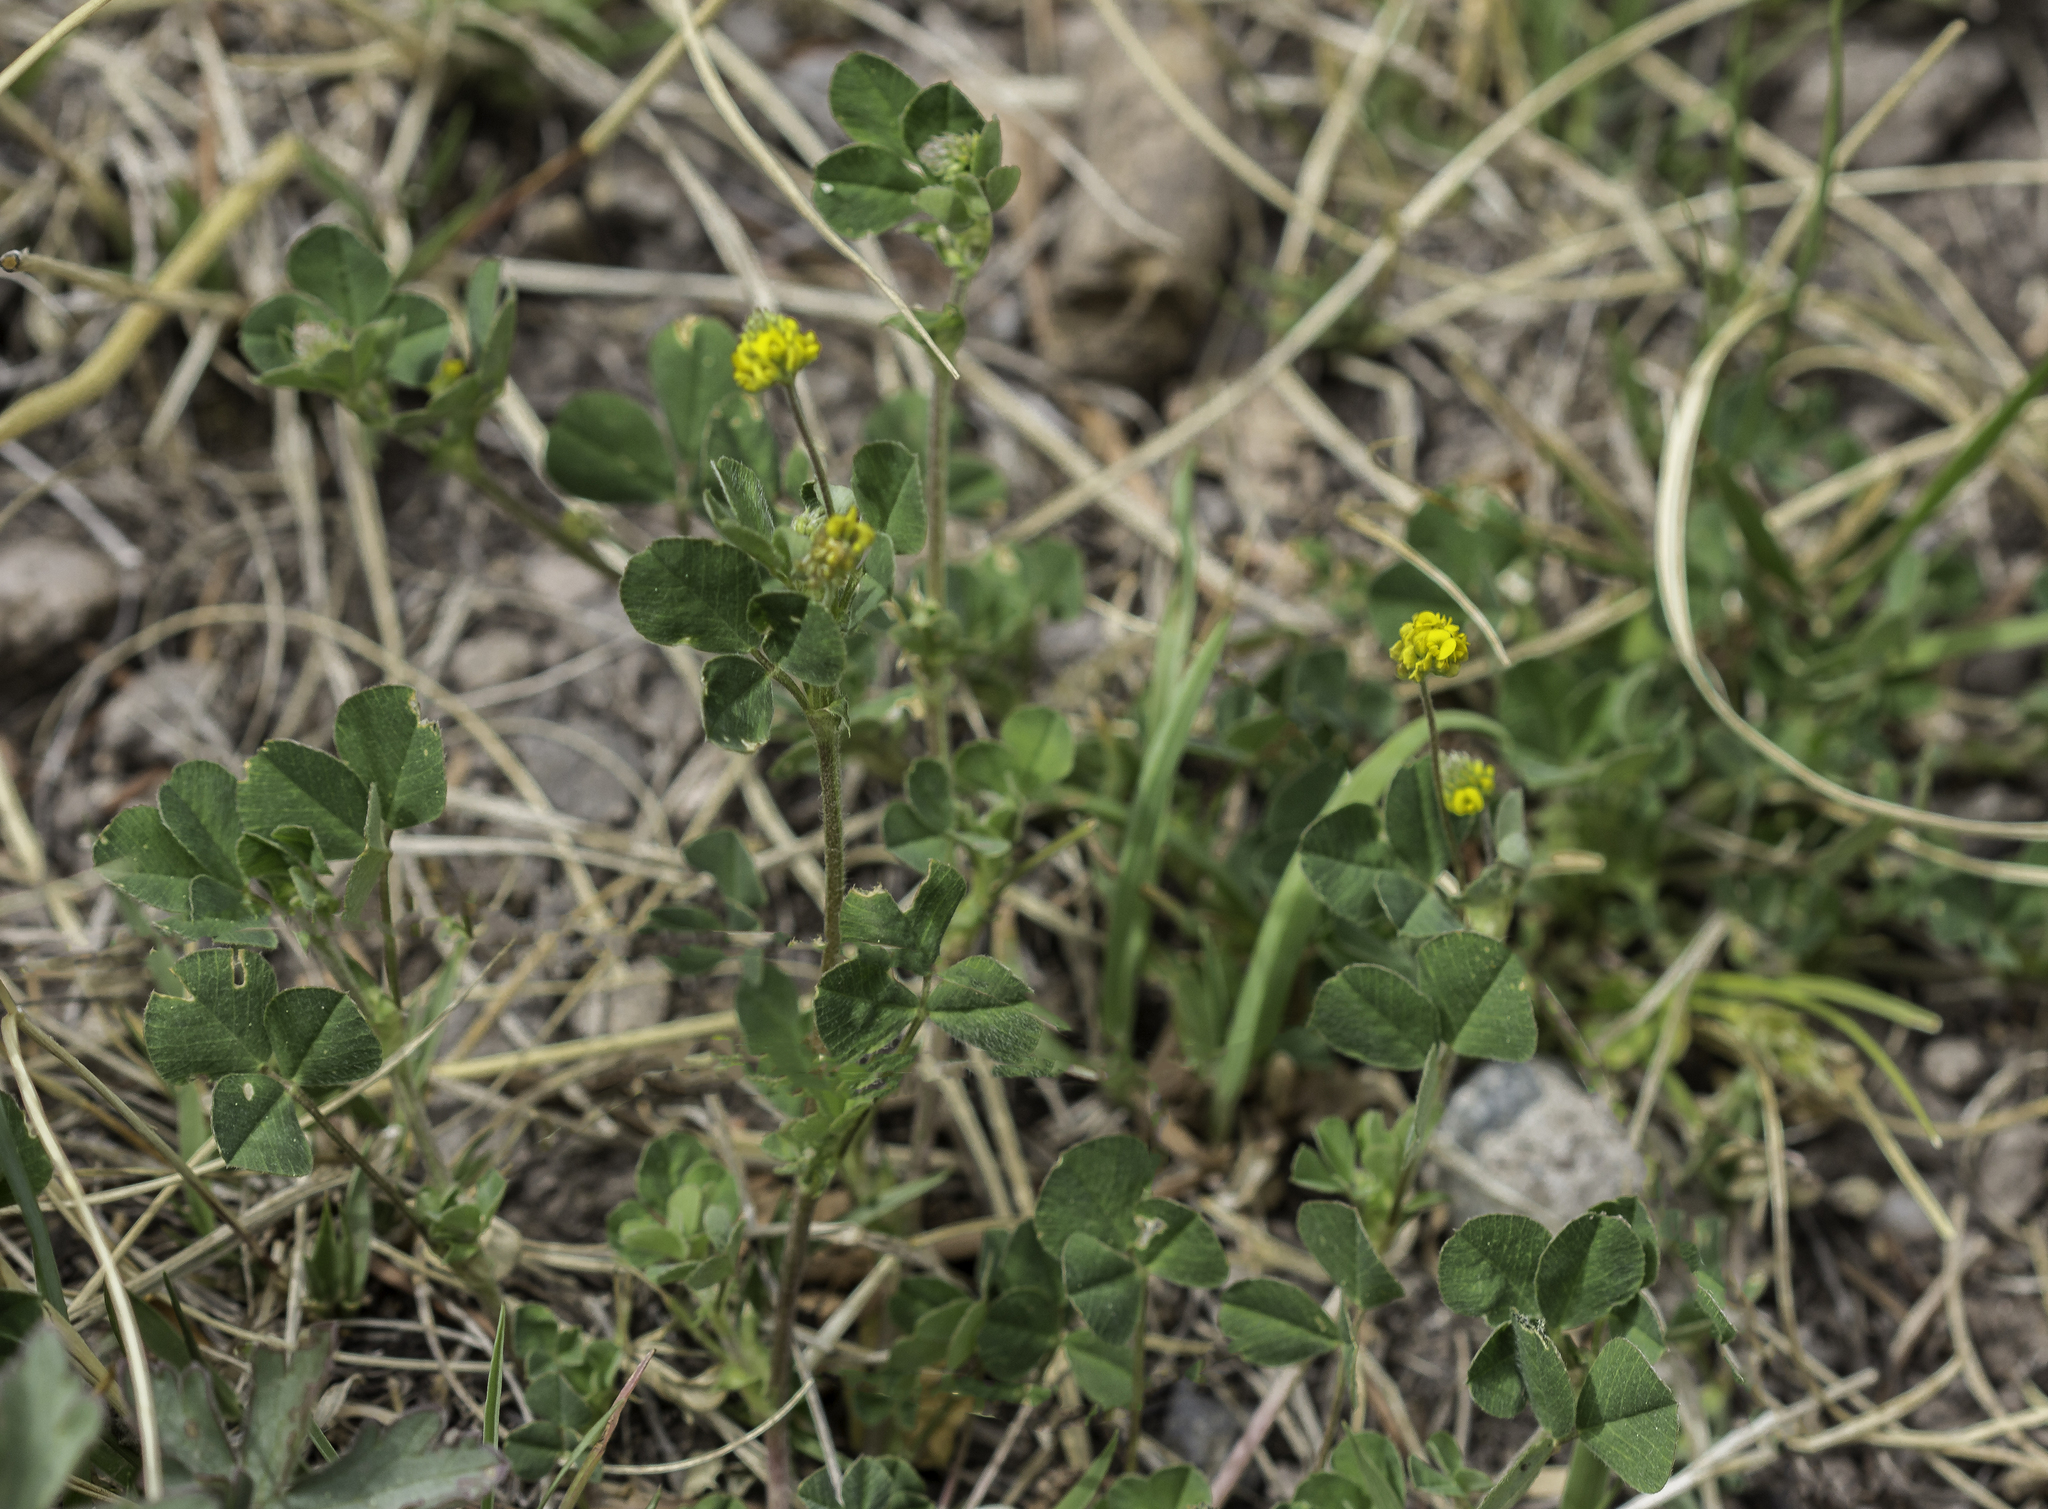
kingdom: Plantae
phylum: Tracheophyta
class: Magnoliopsida
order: Fabales
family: Fabaceae
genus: Medicago
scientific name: Medicago lupulina
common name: Black medick
